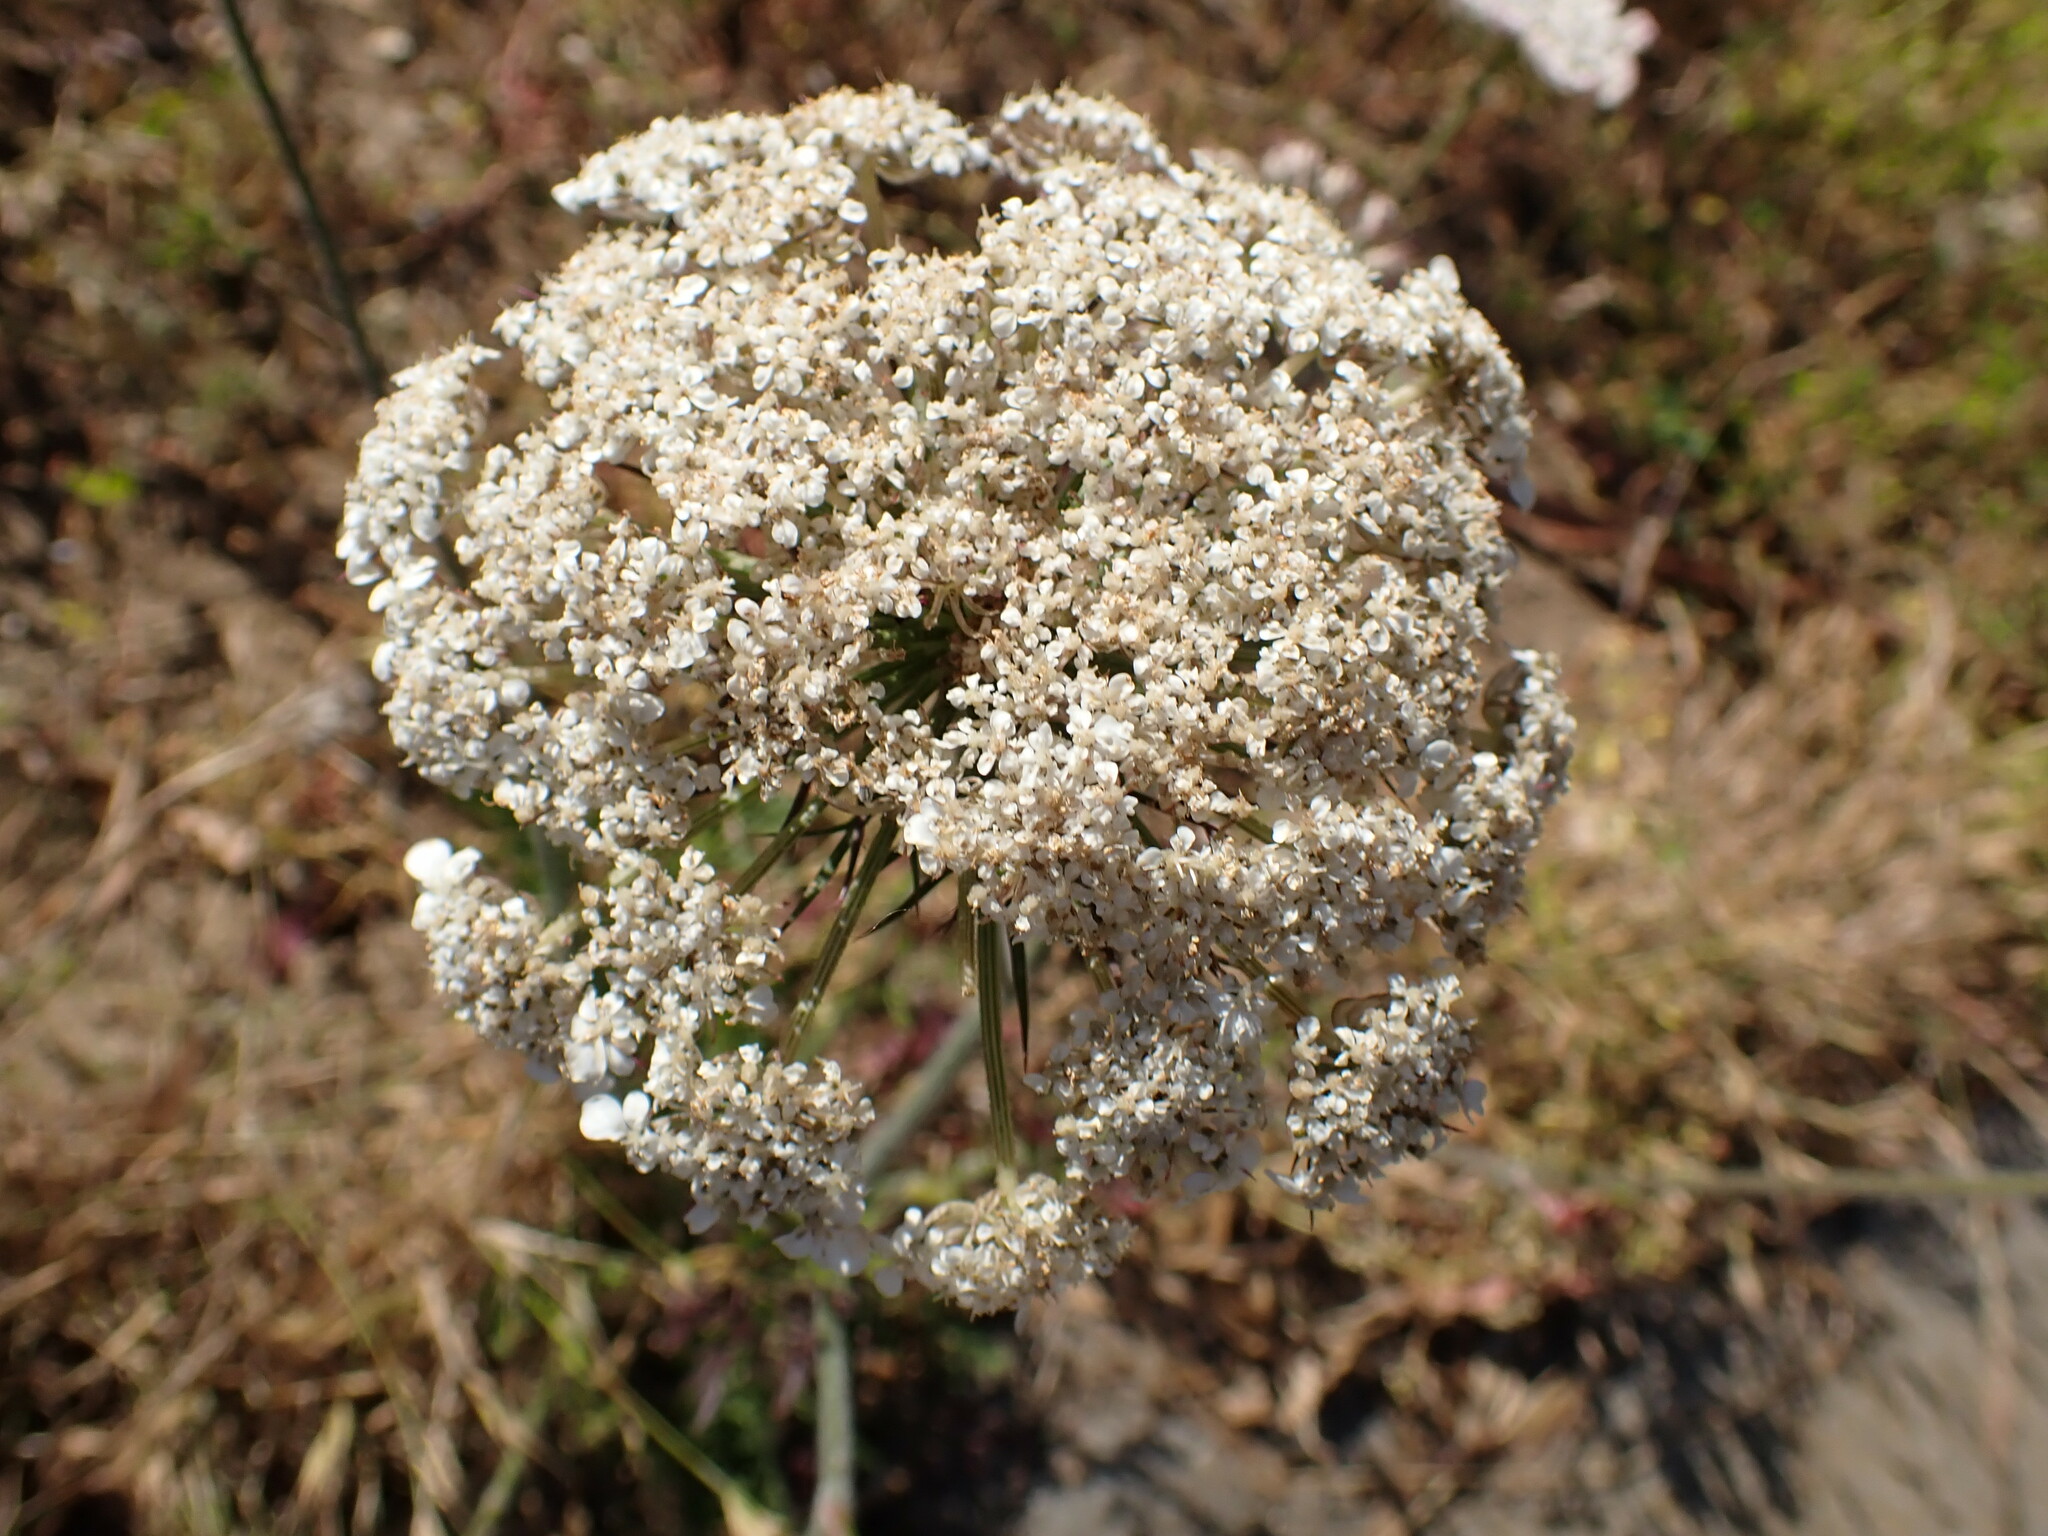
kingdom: Plantae
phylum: Tracheophyta
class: Magnoliopsida
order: Apiales
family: Apiaceae
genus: Daucus
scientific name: Daucus carota
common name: Wild carrot
